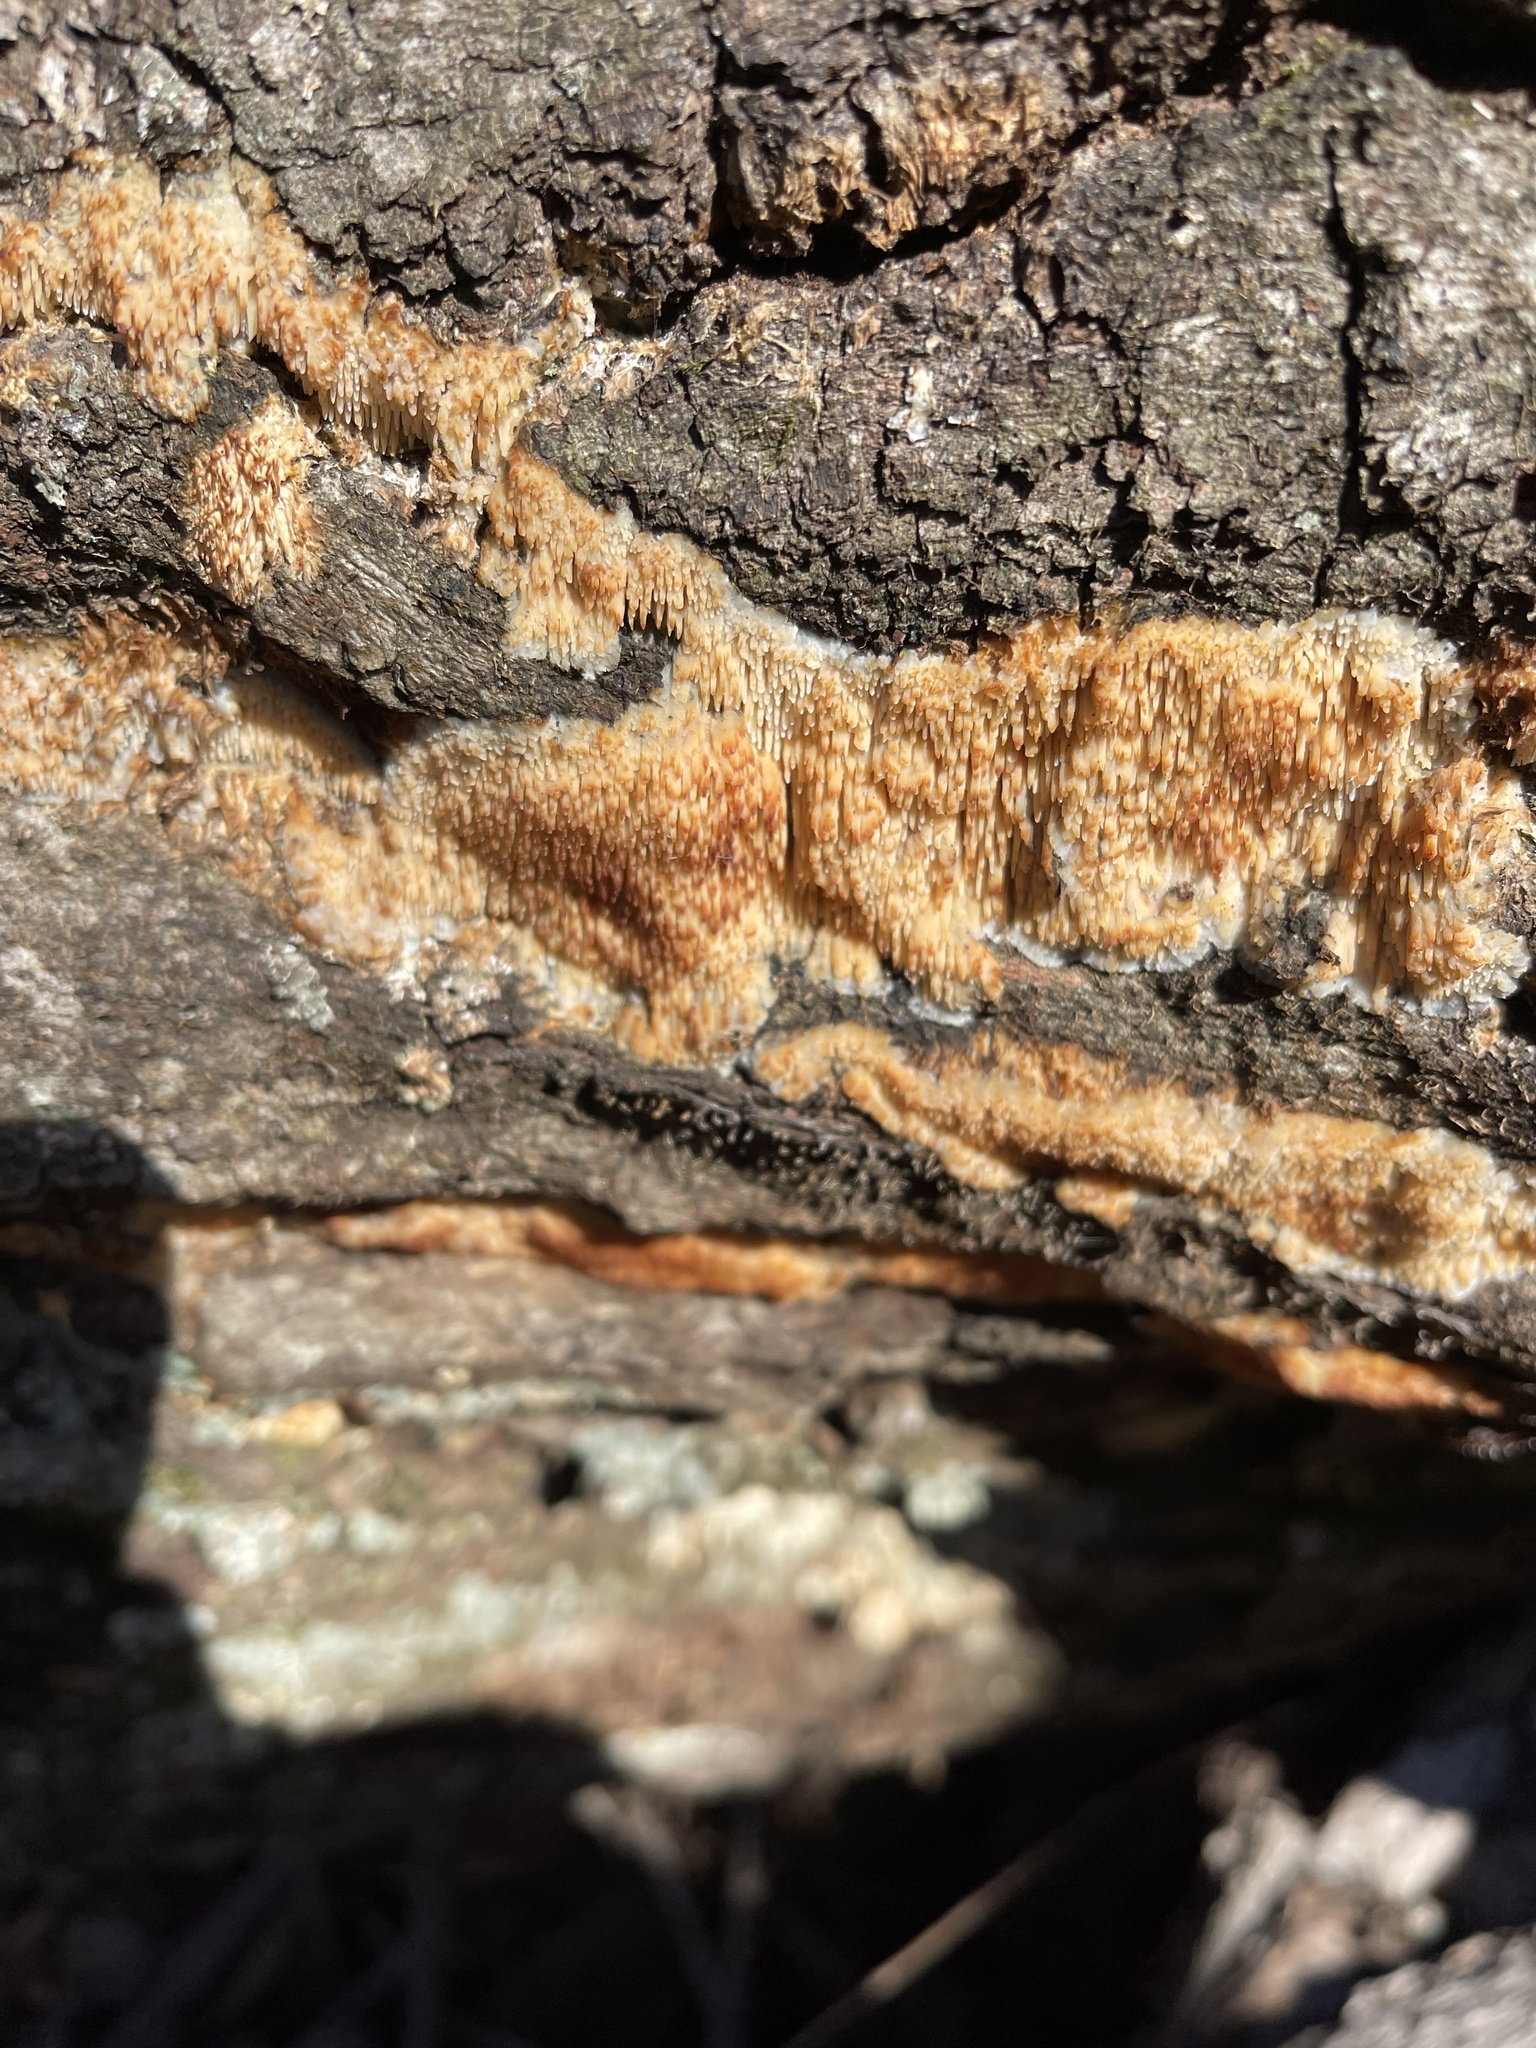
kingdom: Fungi
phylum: Basidiomycota
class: Agaricomycetes
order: Agaricales
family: Radulomycetaceae
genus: Radulomyces
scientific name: Radulomyces copelandii
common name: Asian beauty
